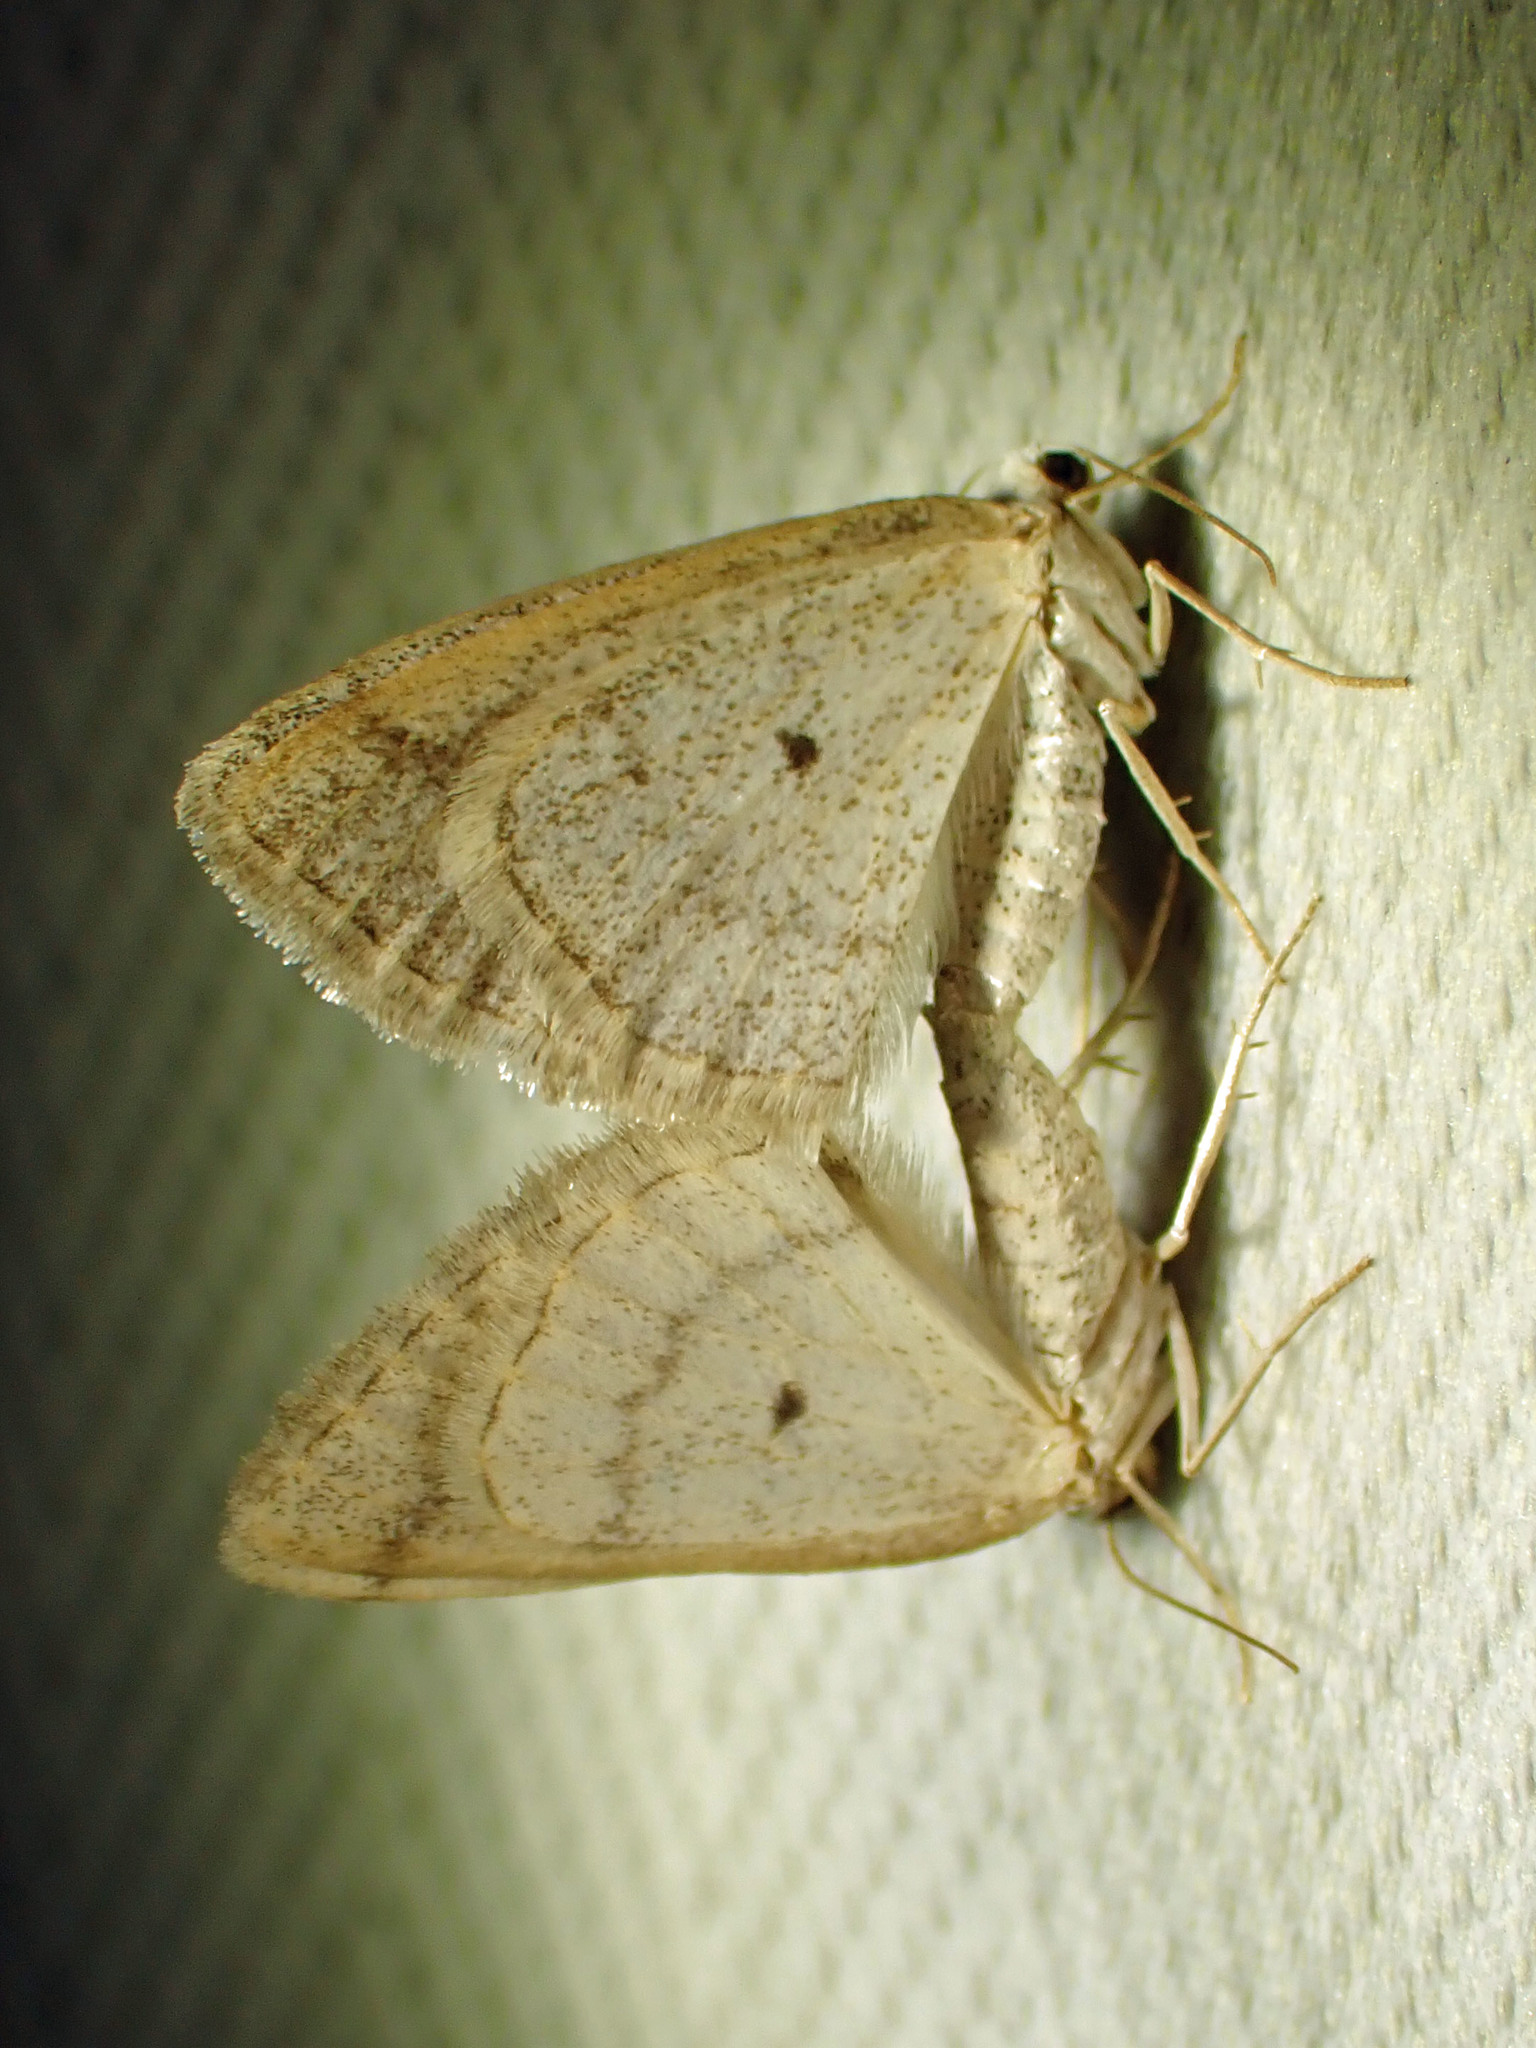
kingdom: Animalia
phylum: Arthropoda
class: Insecta
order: Lepidoptera
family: Geometridae
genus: Lomographa
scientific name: Lomographa glomeraria
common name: Gray spring moth
